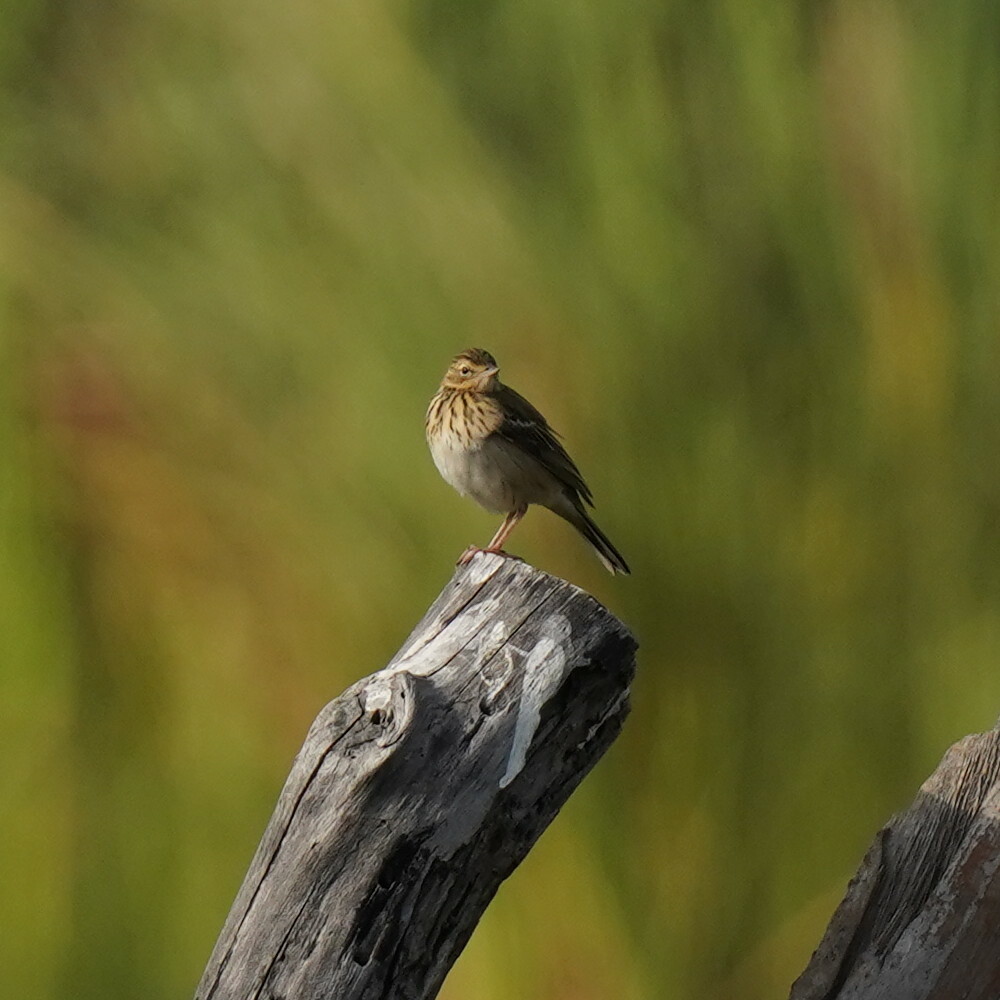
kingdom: Animalia
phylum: Chordata
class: Aves
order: Passeriformes
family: Motacillidae
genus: Anthus
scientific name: Anthus trivialis
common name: Tree pipit
